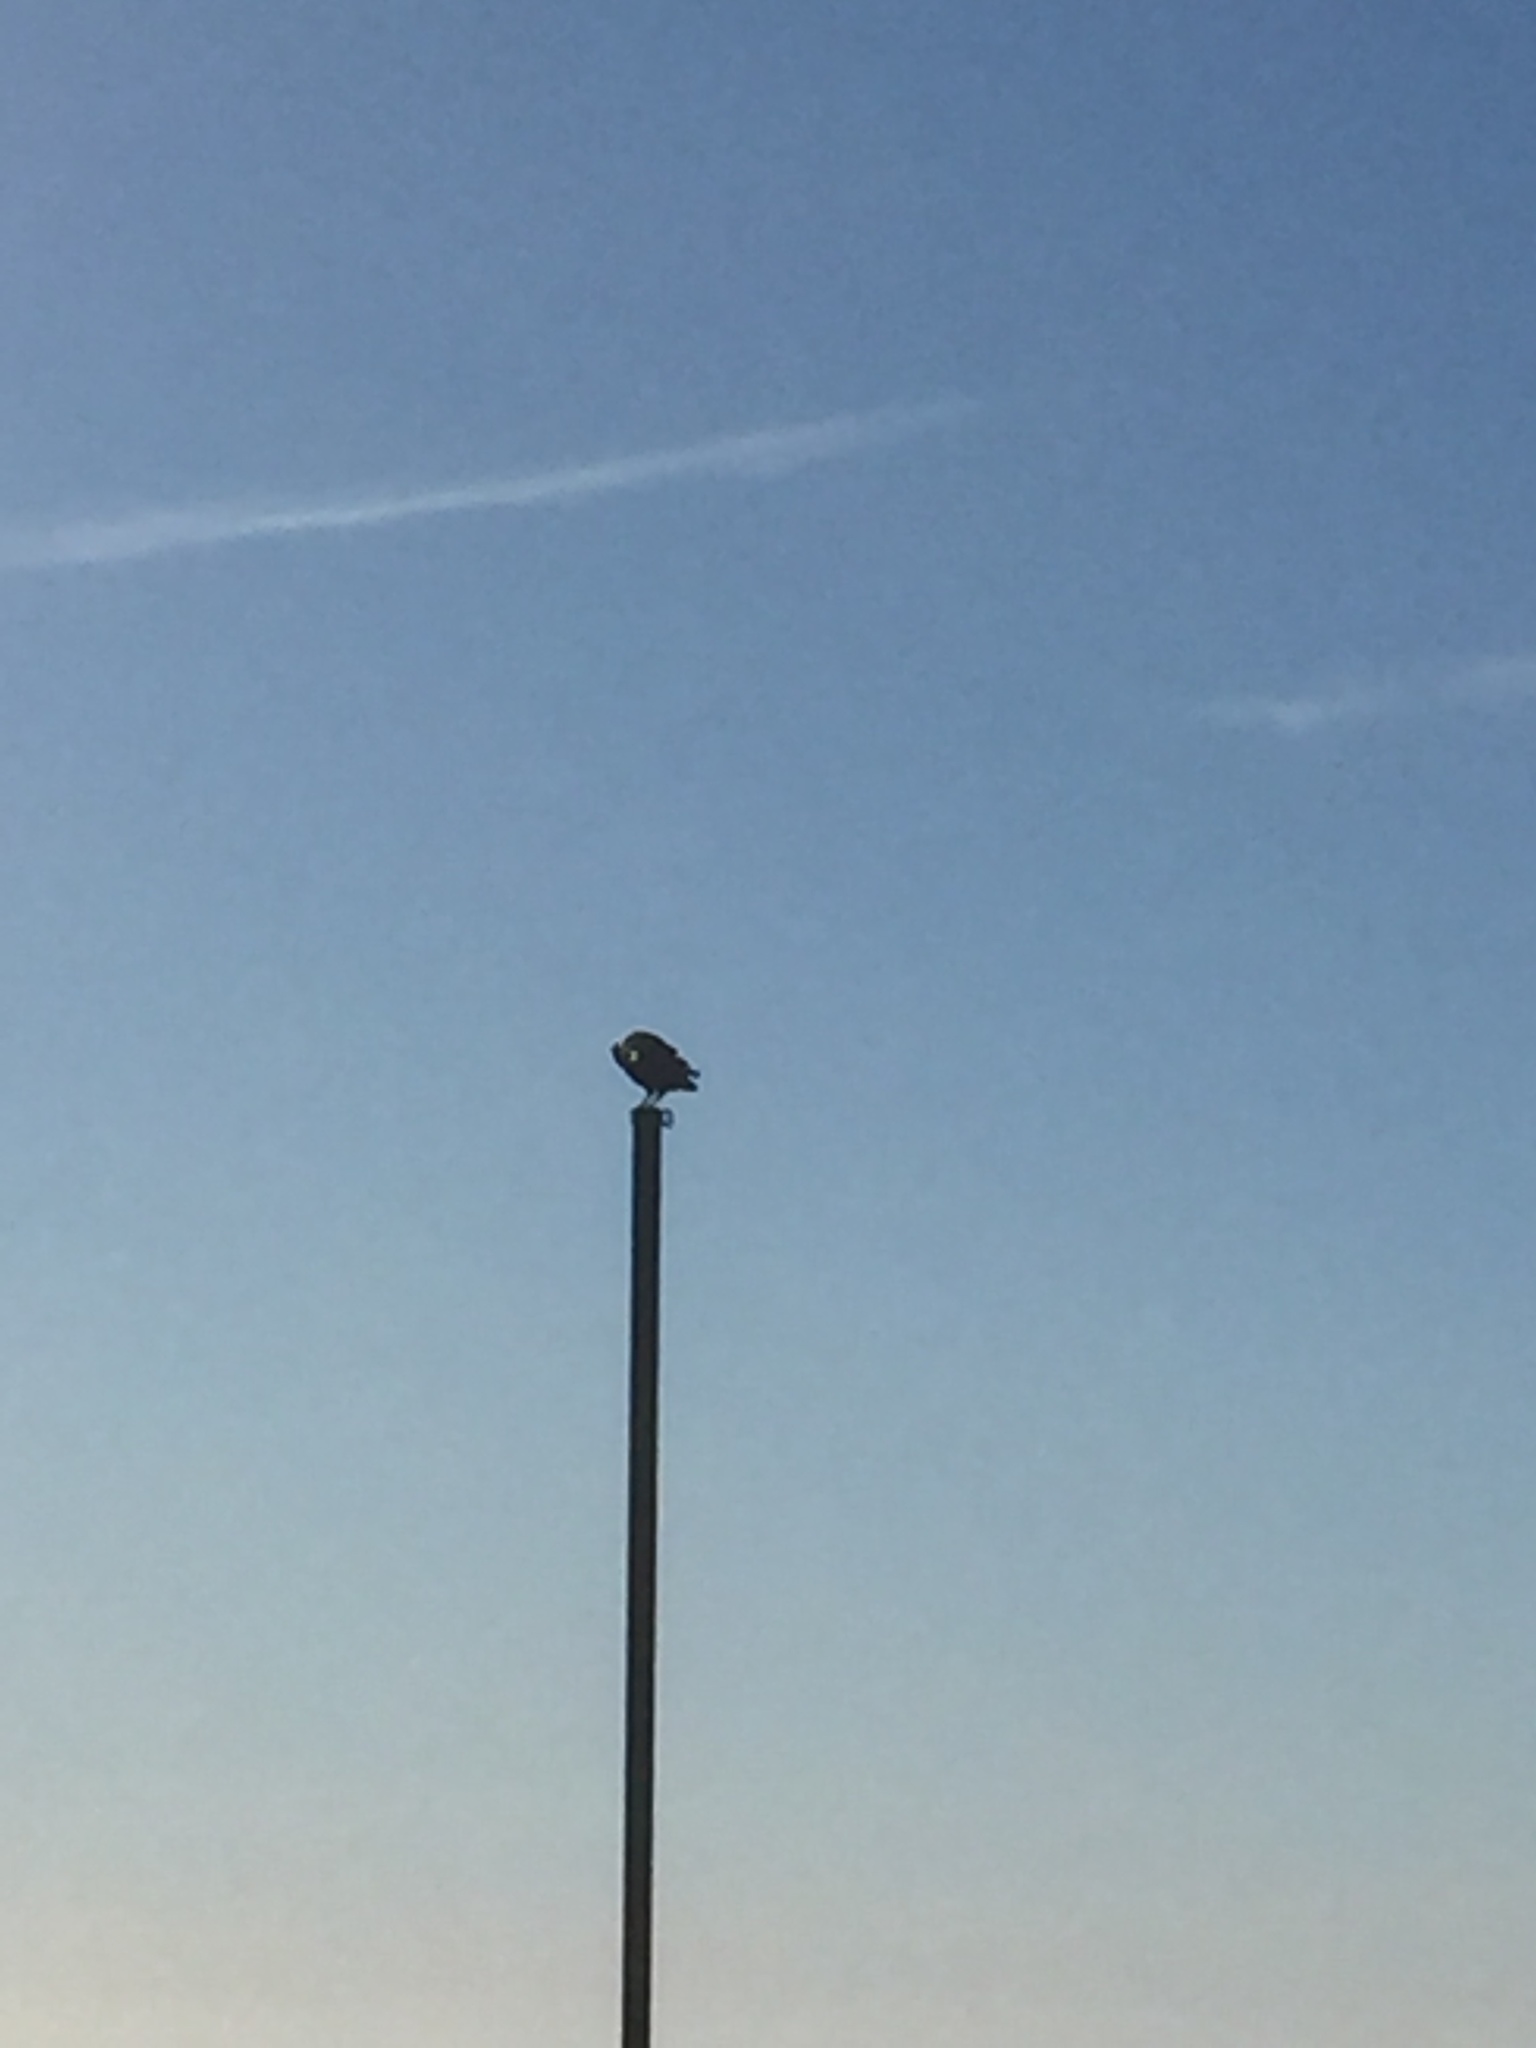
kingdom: Animalia
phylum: Chordata
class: Aves
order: Passeriformes
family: Corvidae
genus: Corvus
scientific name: Corvus corax
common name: Common raven
